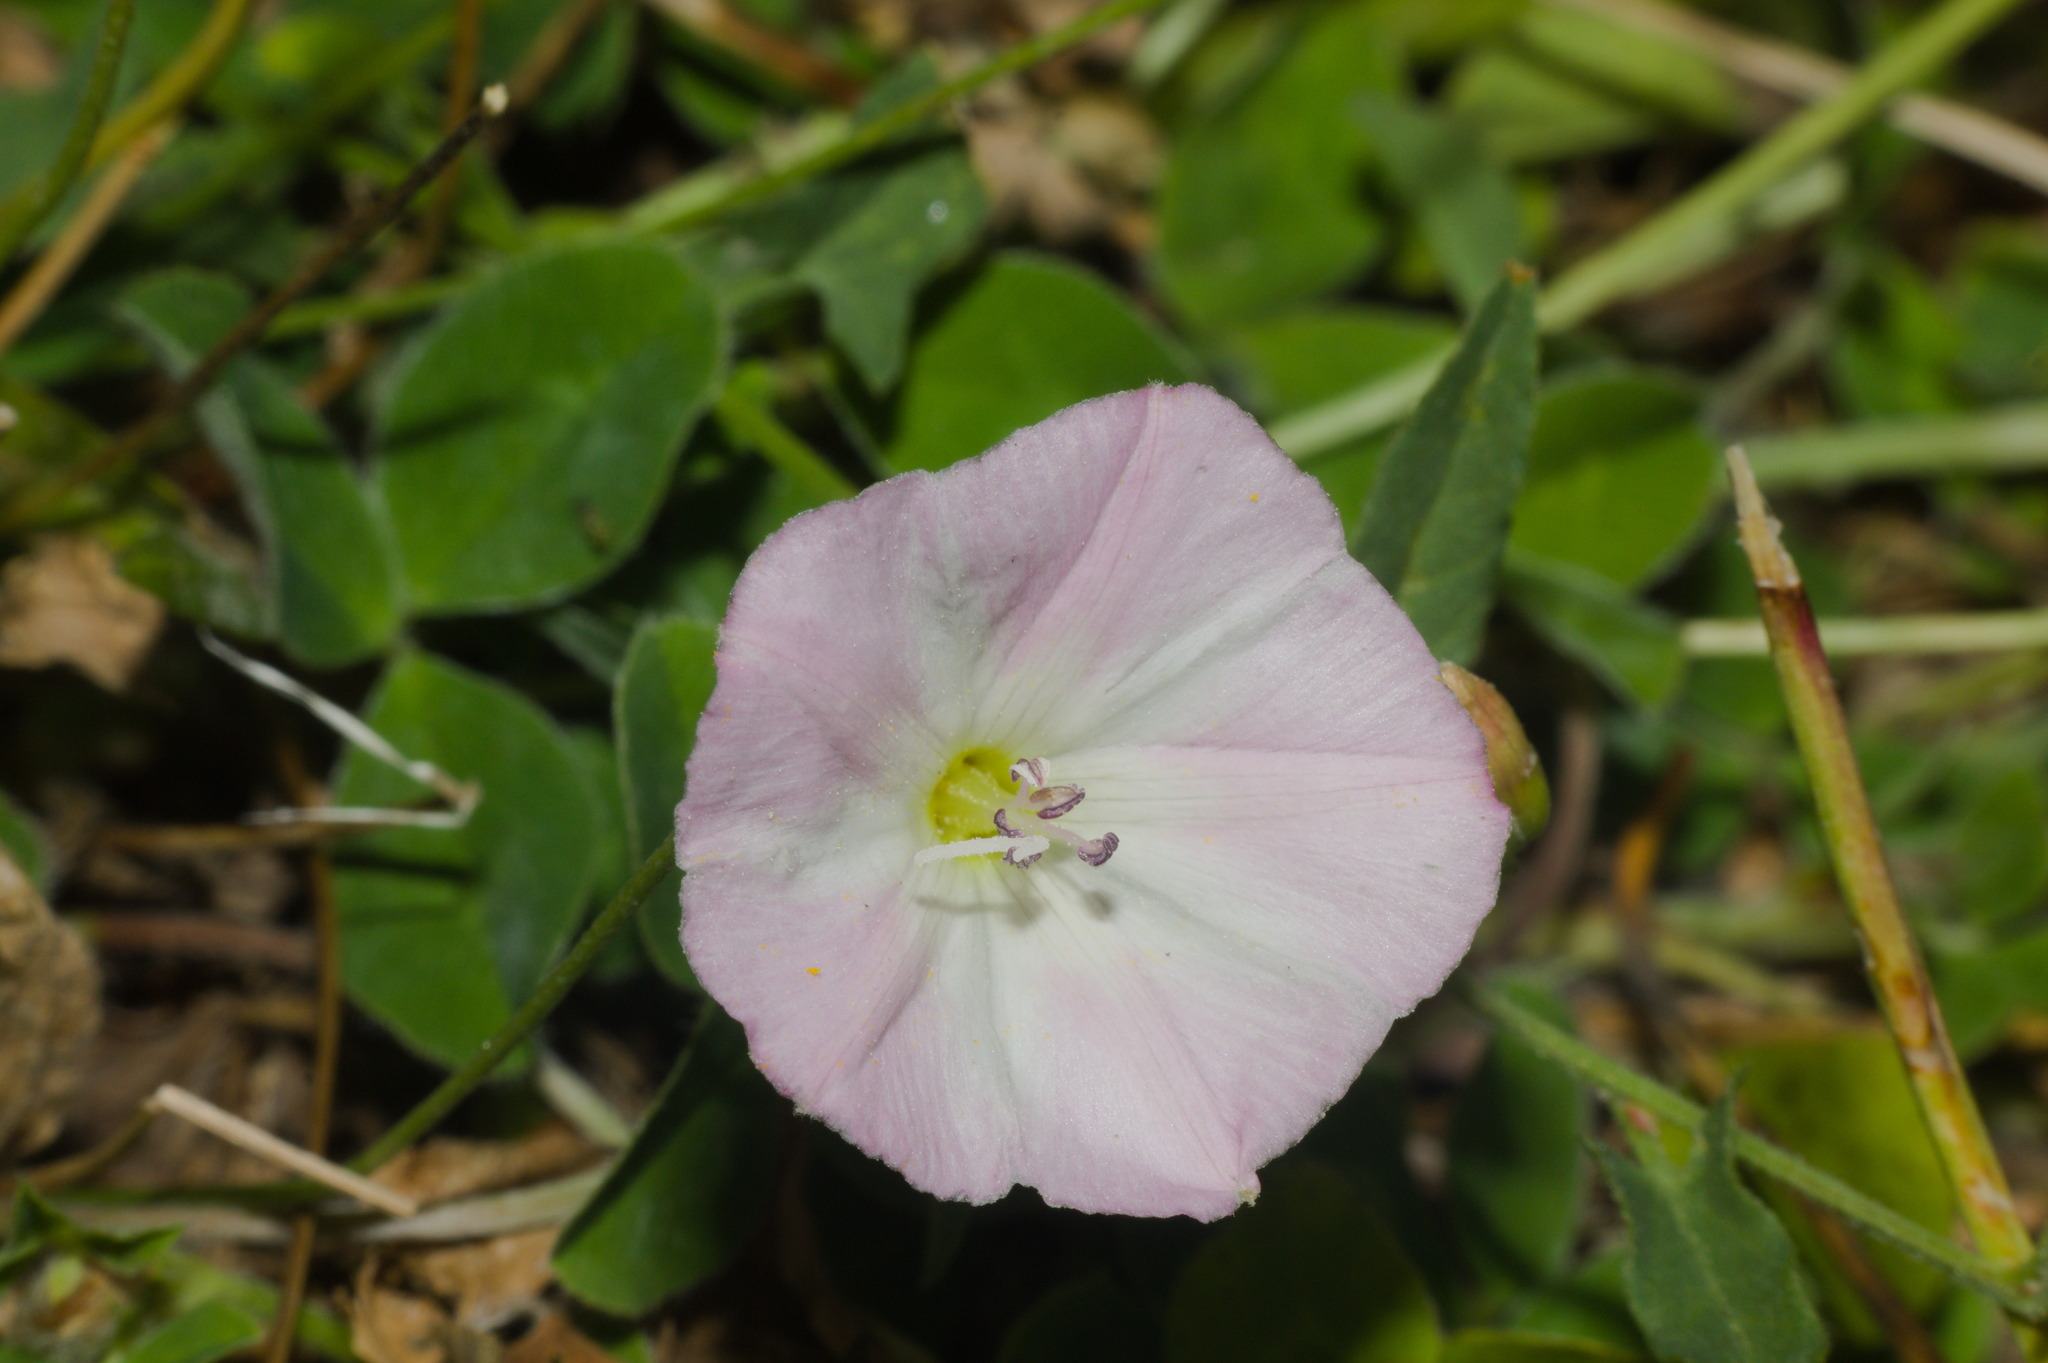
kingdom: Plantae
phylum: Tracheophyta
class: Magnoliopsida
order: Solanales
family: Convolvulaceae
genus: Convolvulus
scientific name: Convolvulus arvensis
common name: Field bindweed
